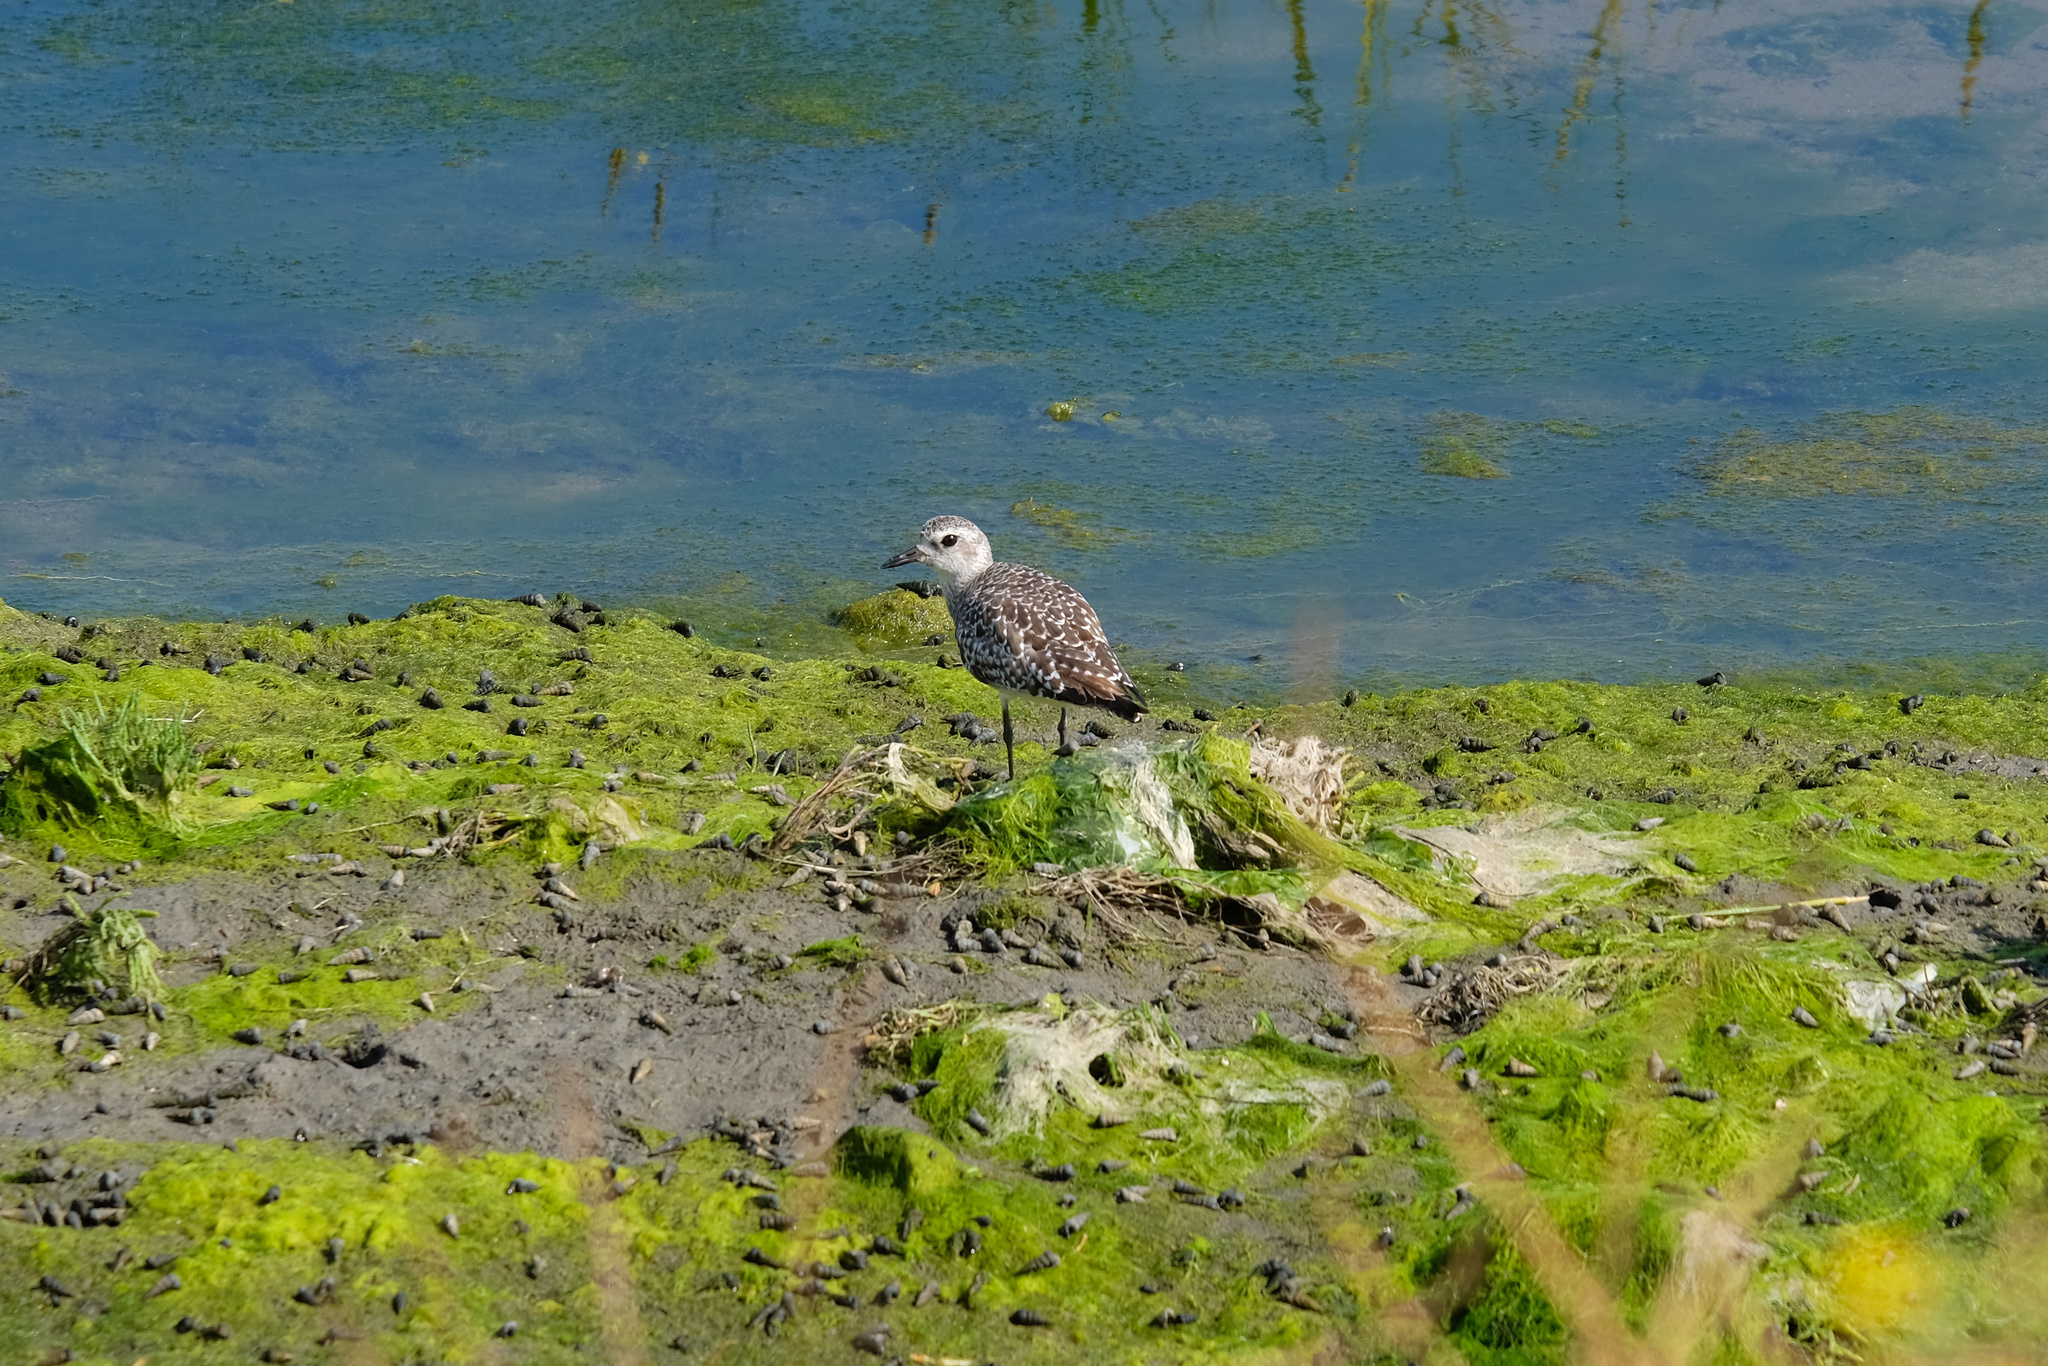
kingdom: Animalia
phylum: Chordata
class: Aves
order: Charadriiformes
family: Charadriidae
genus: Pluvialis
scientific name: Pluvialis squatarola
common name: Grey plover
